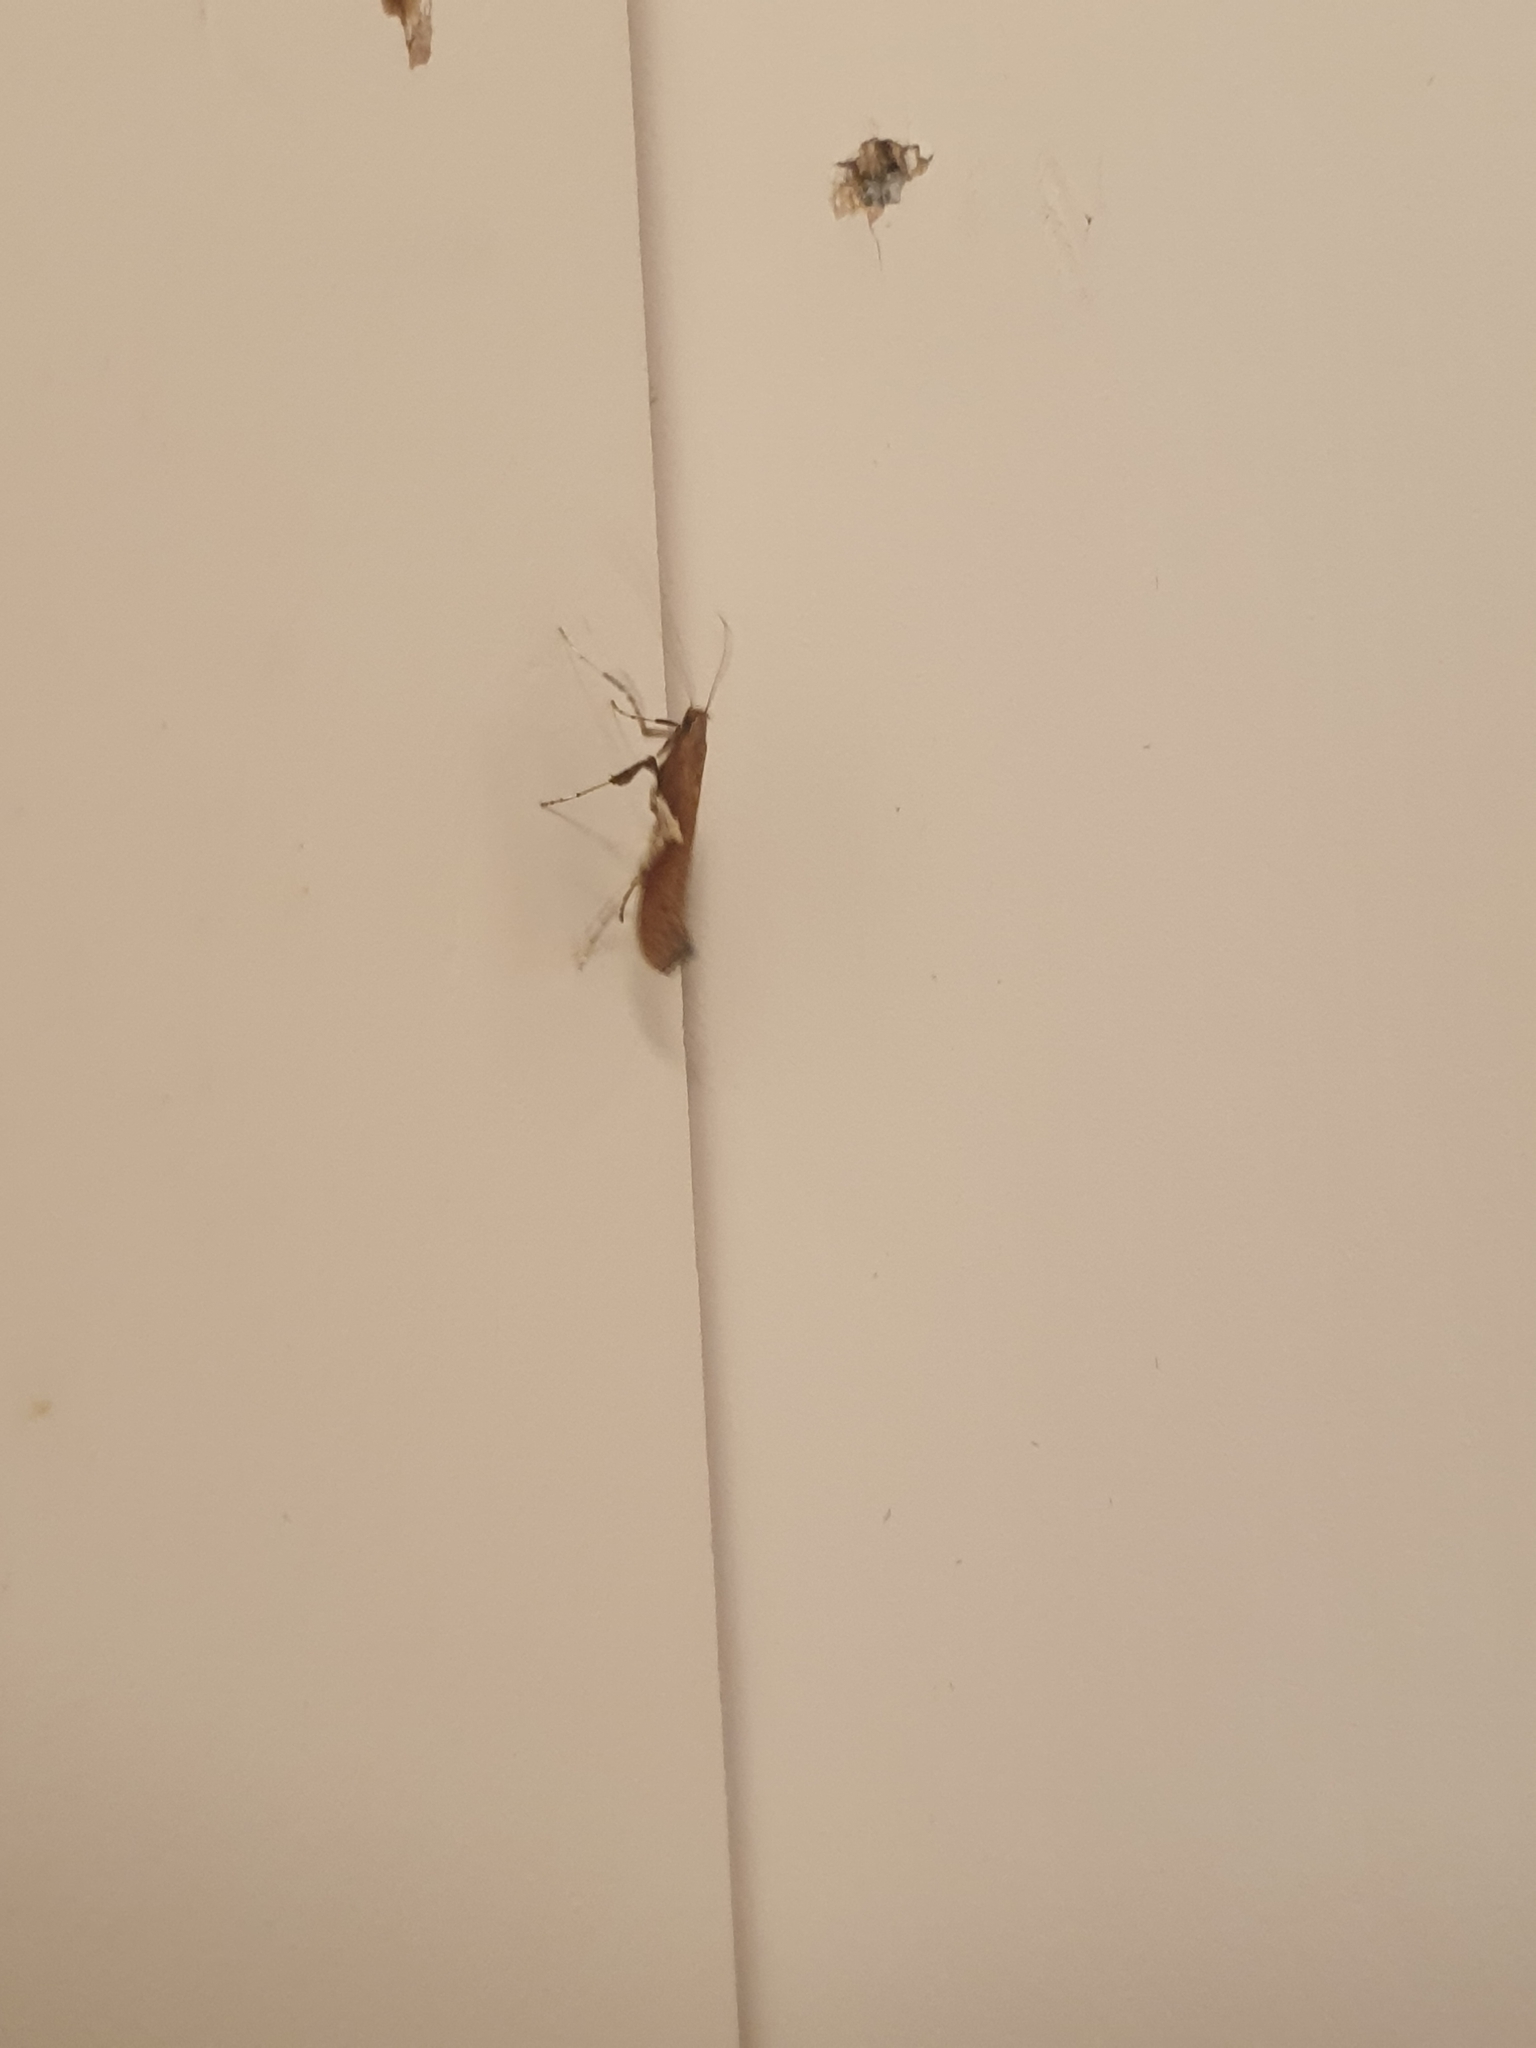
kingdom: Animalia
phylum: Arthropoda
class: Insecta
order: Lepidoptera
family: Gracillariidae
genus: Caloptilia
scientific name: Caloptilia stigmatella
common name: White-triangle slender
